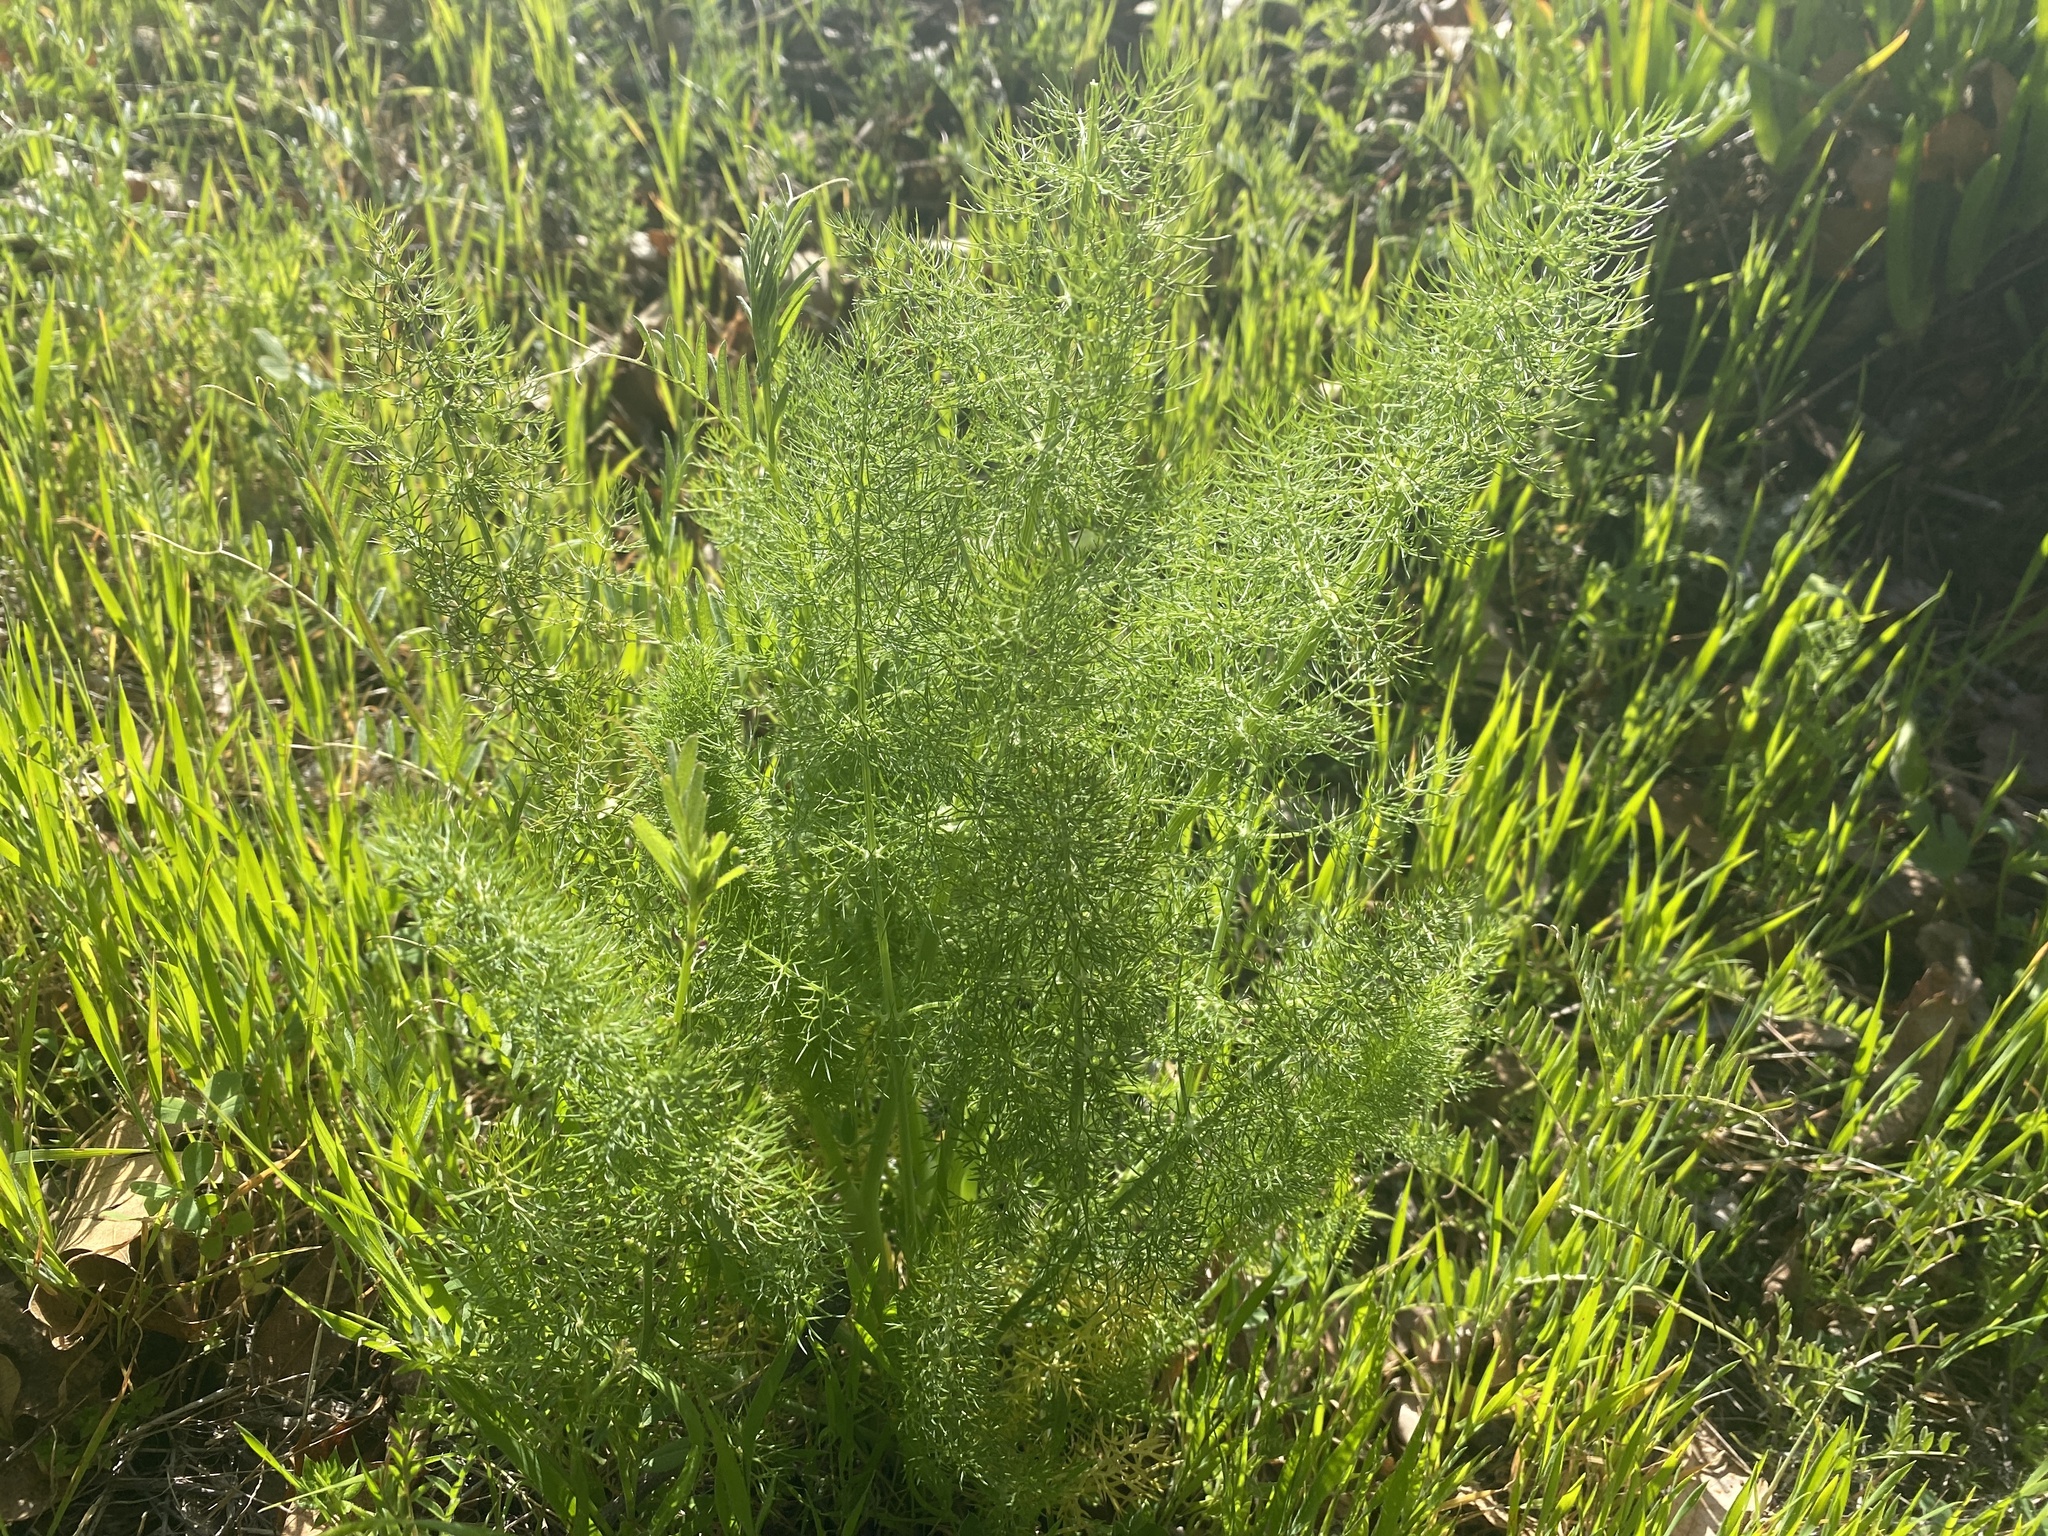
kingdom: Plantae
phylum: Tracheophyta
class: Magnoliopsida
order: Apiales
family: Apiaceae
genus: Foeniculum
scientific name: Foeniculum vulgare
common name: Fennel
